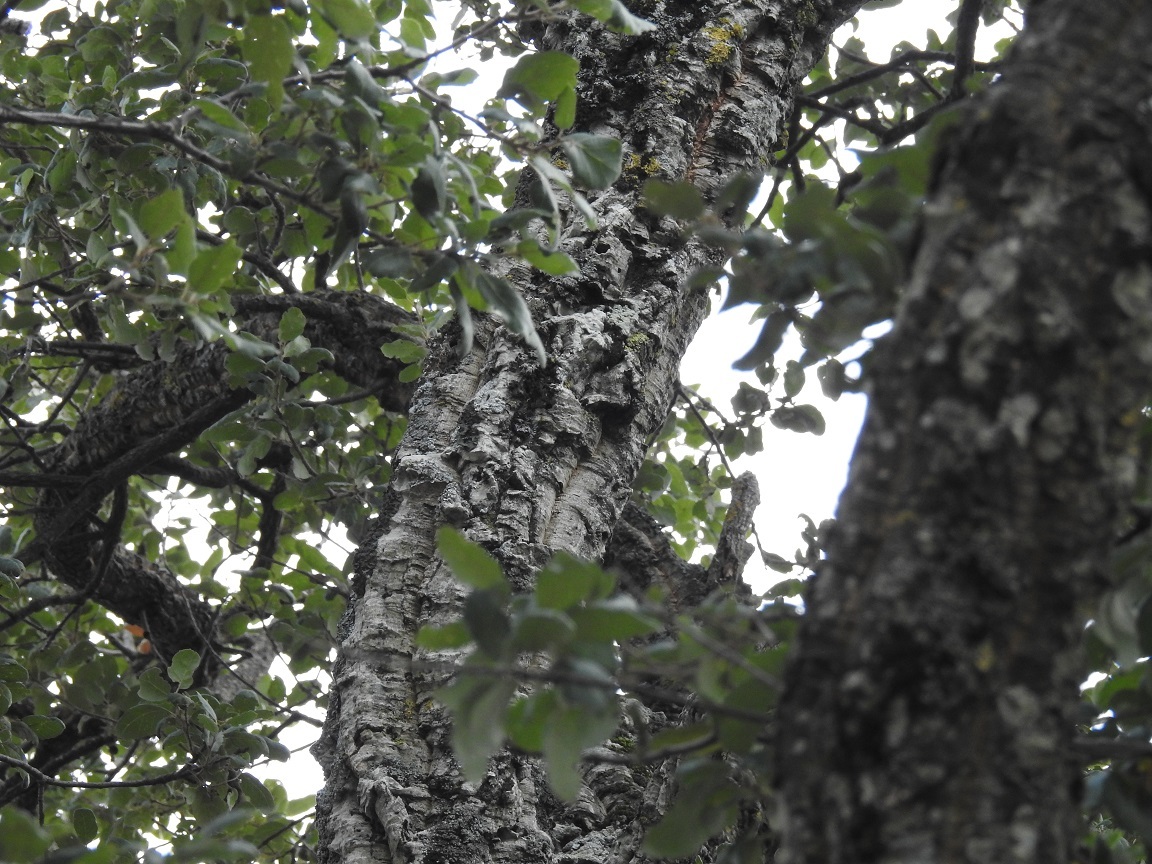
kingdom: Plantae
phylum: Tracheophyta
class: Magnoliopsida
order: Fagales
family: Fagaceae
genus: Quercus
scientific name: Quercus suber
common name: Cork oak
